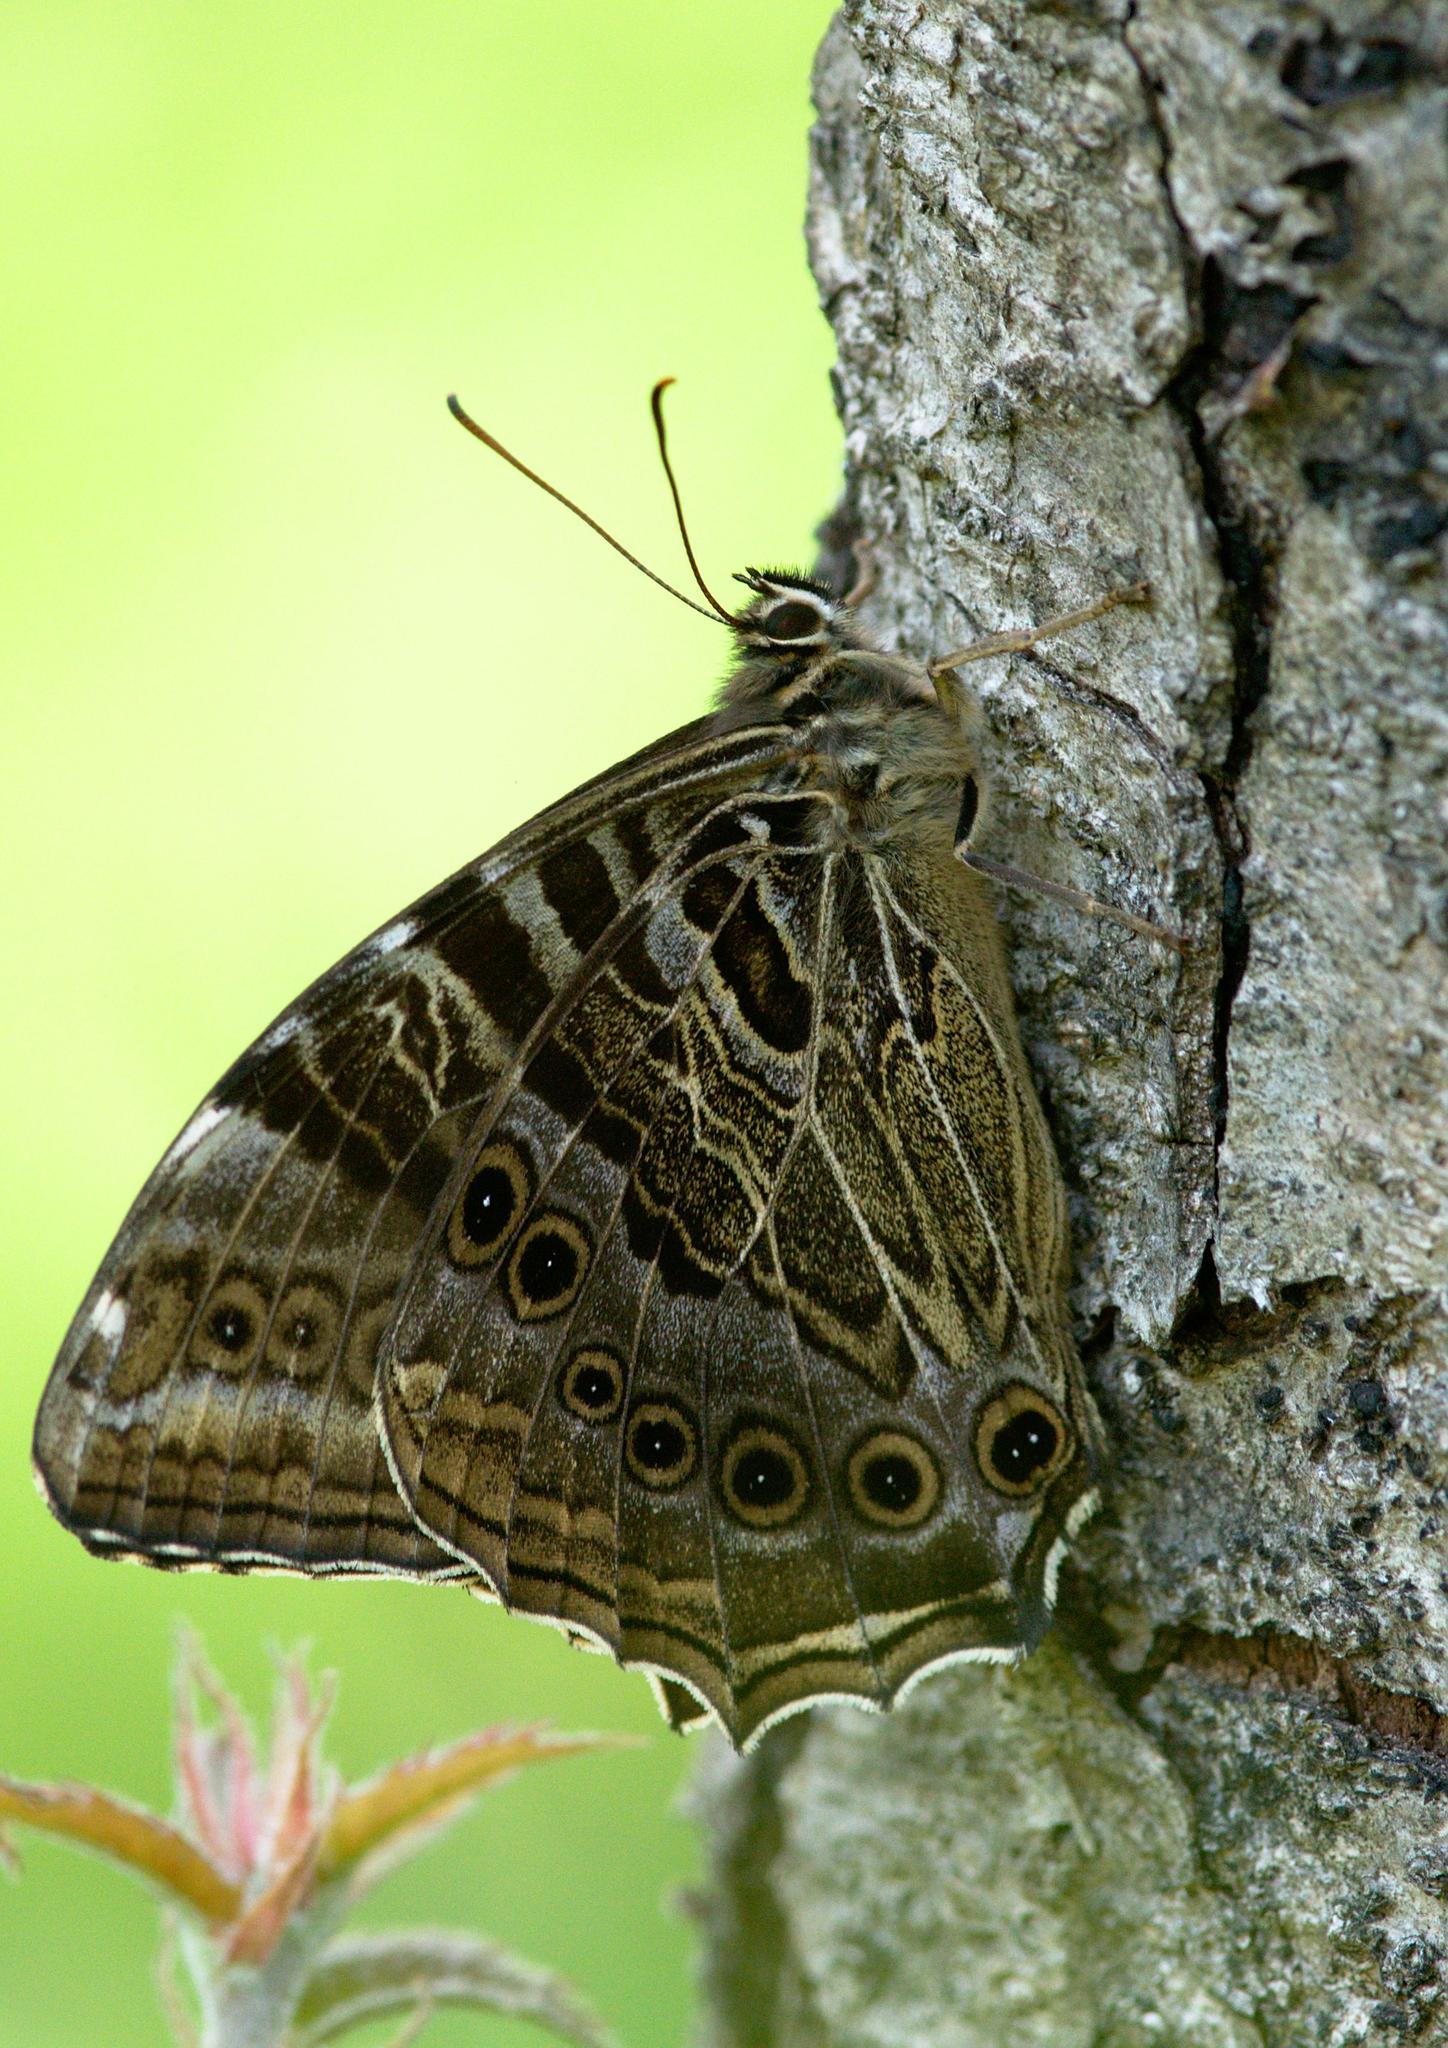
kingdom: Animalia
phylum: Arthropoda
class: Insecta
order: Lepidoptera
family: Nymphalidae
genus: Neope
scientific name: Neope yama
